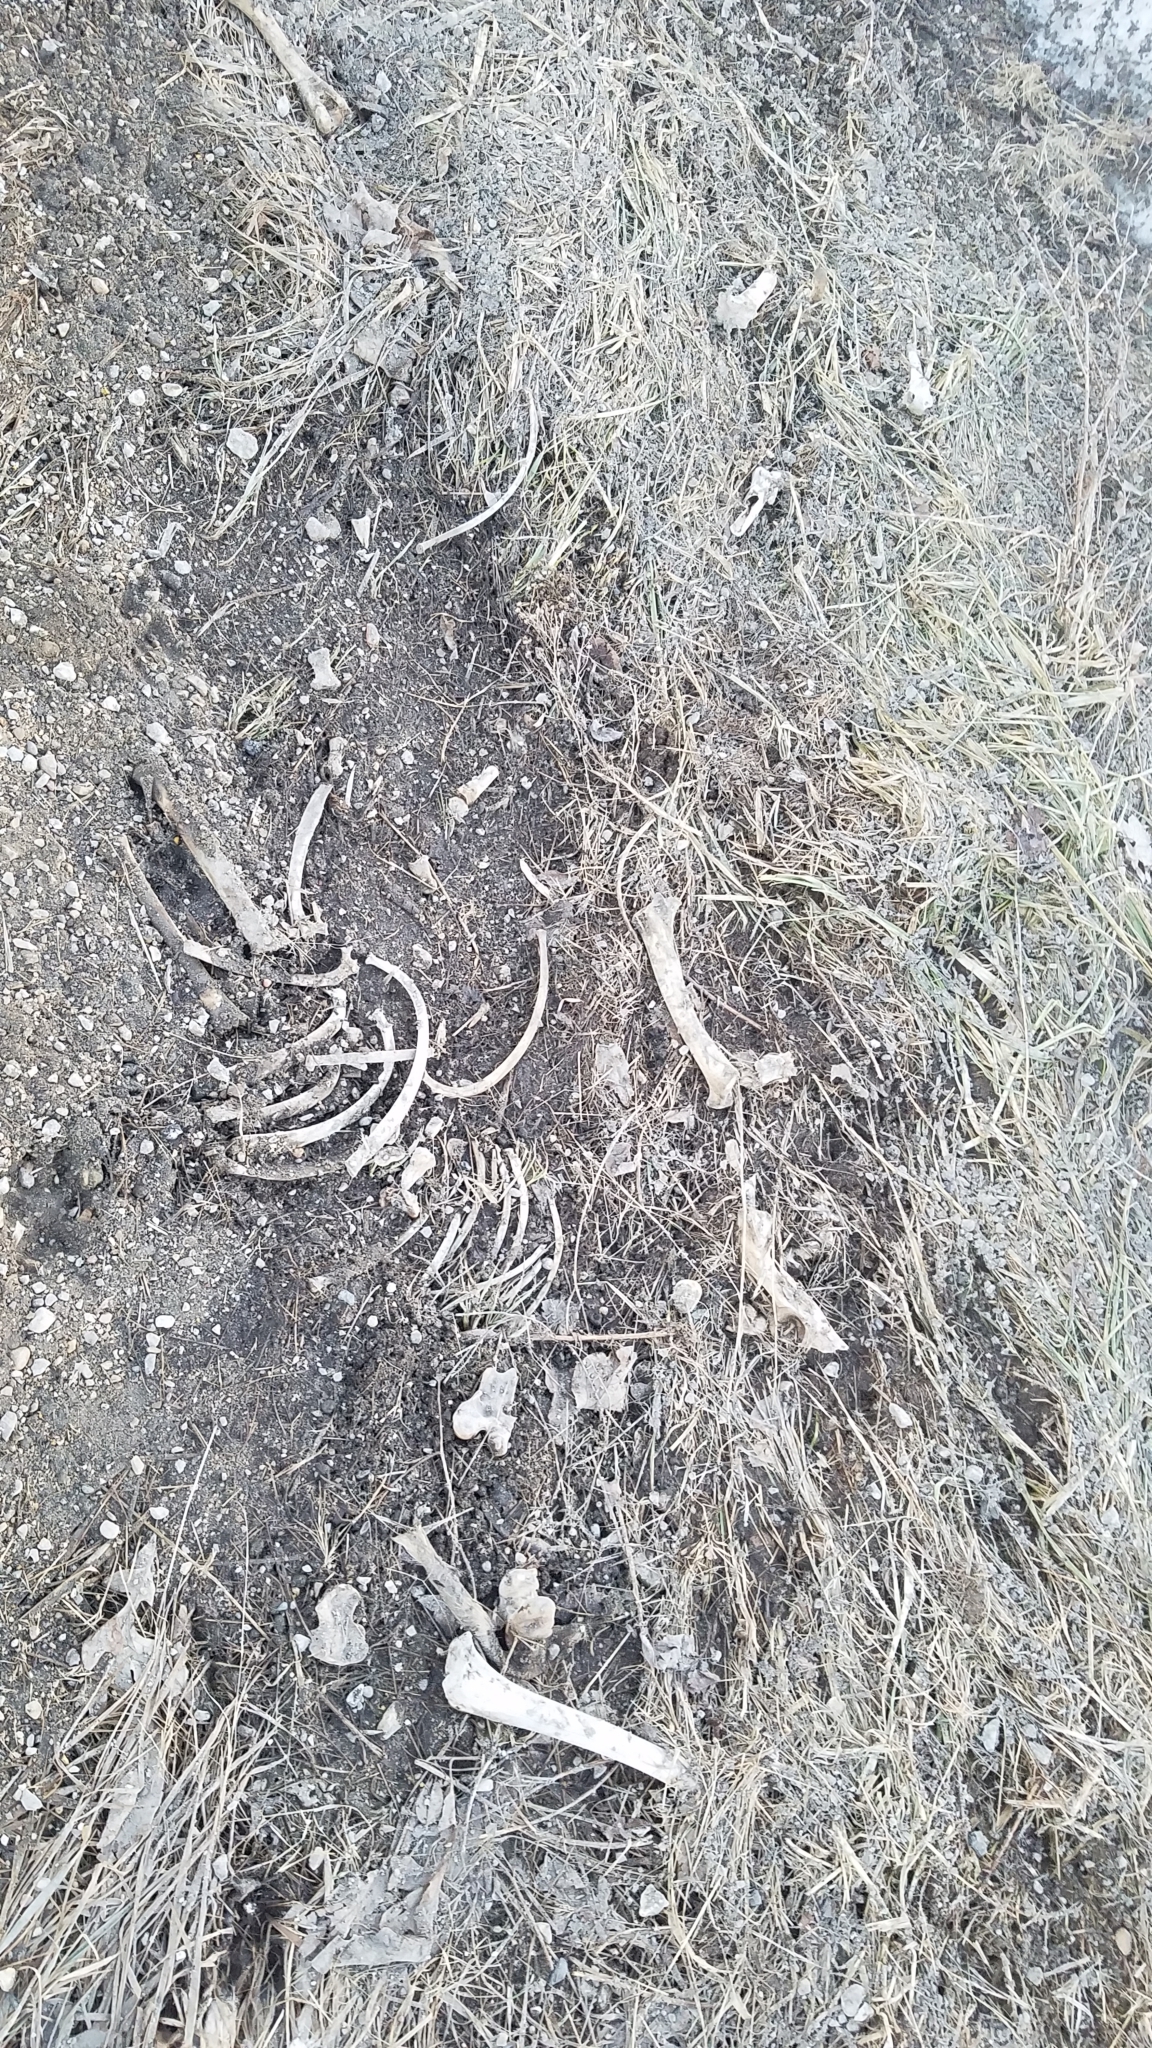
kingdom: Animalia
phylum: Chordata
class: Mammalia
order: Artiodactyla
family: Cervidae
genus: Odocoileus
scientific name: Odocoileus virginianus
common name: White-tailed deer
